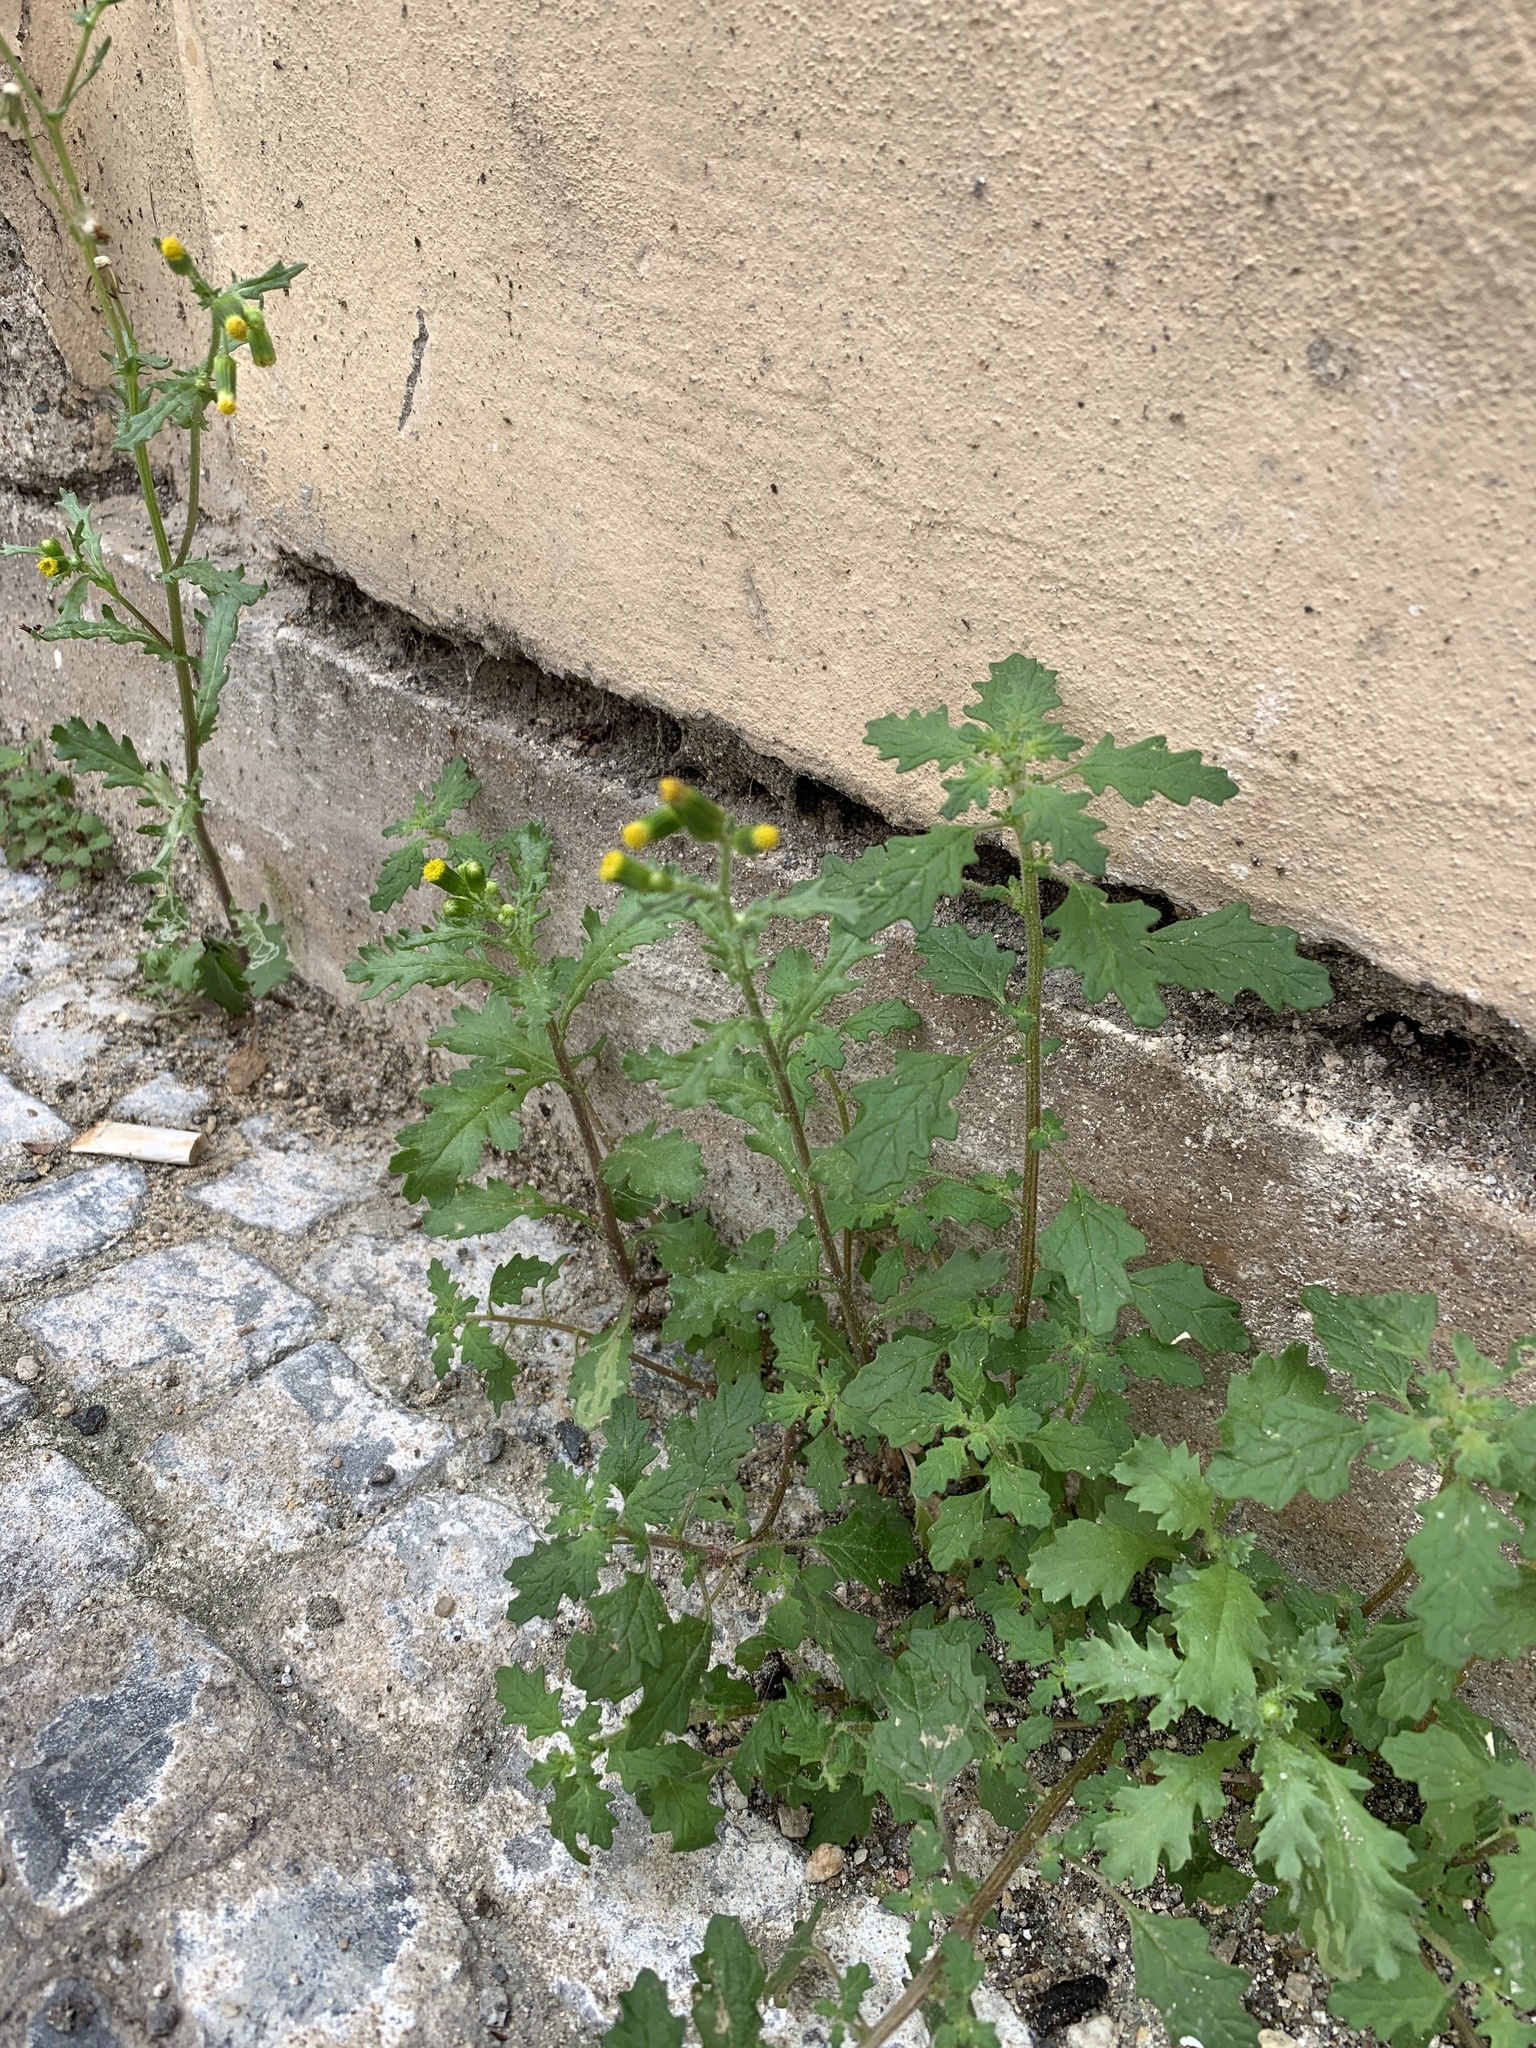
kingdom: Plantae
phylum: Tracheophyta
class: Magnoliopsida
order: Asterales
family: Asteraceae
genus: Senecio
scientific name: Senecio vulgaris
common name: Old-man-in-the-spring
